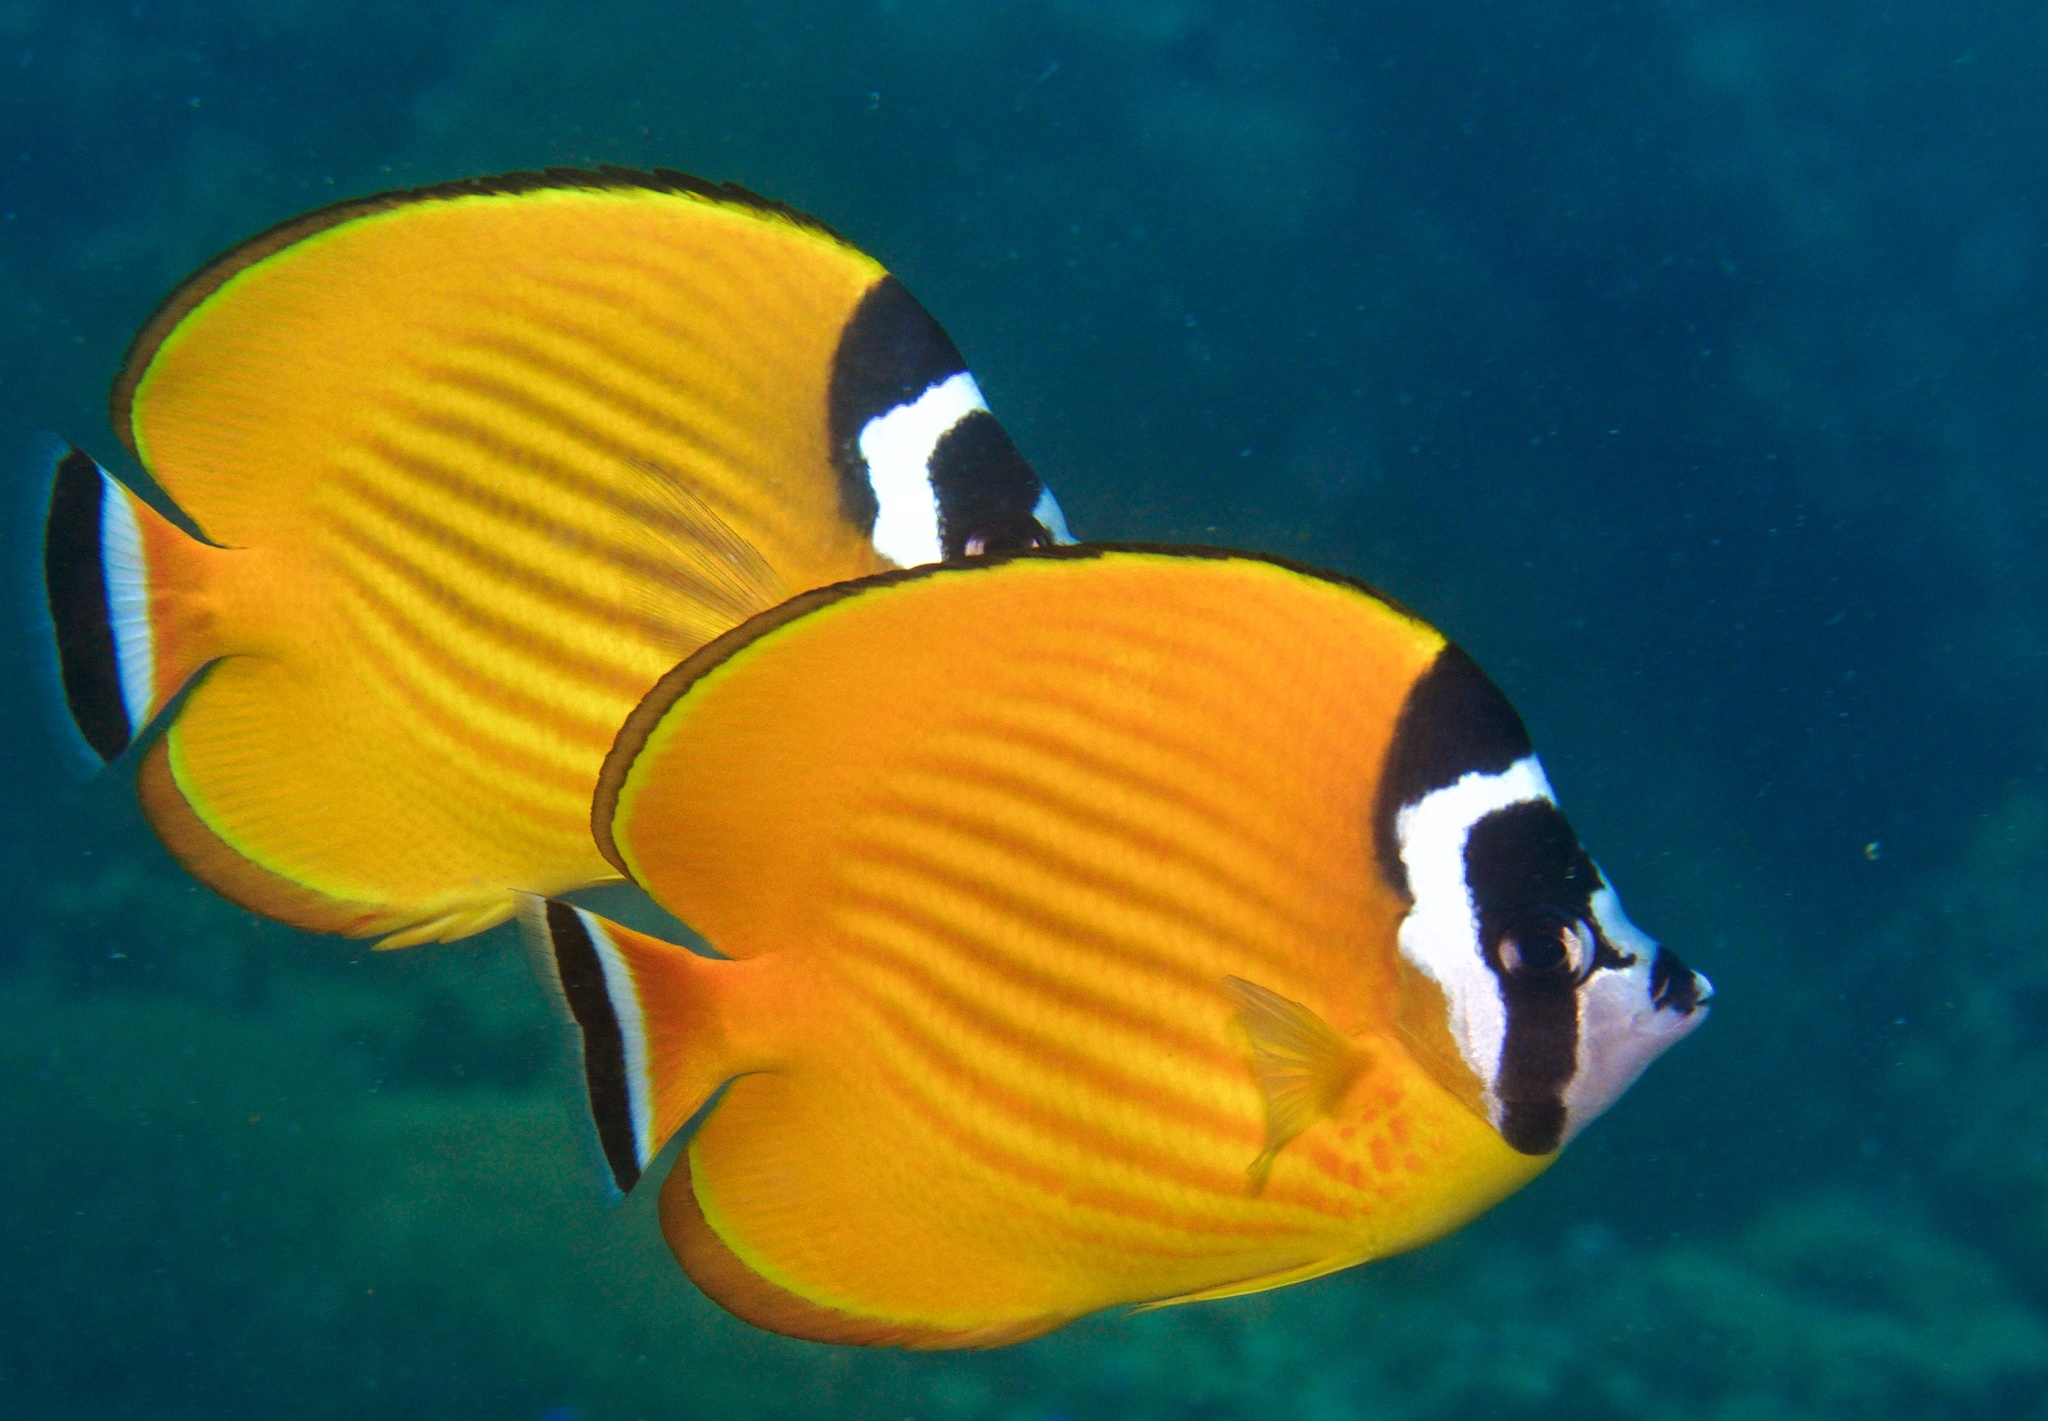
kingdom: Animalia
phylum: Chordata
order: Perciformes
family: Chaetodontidae
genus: Chaetodon
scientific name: Chaetodon wiebeli
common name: Butterflyfish
